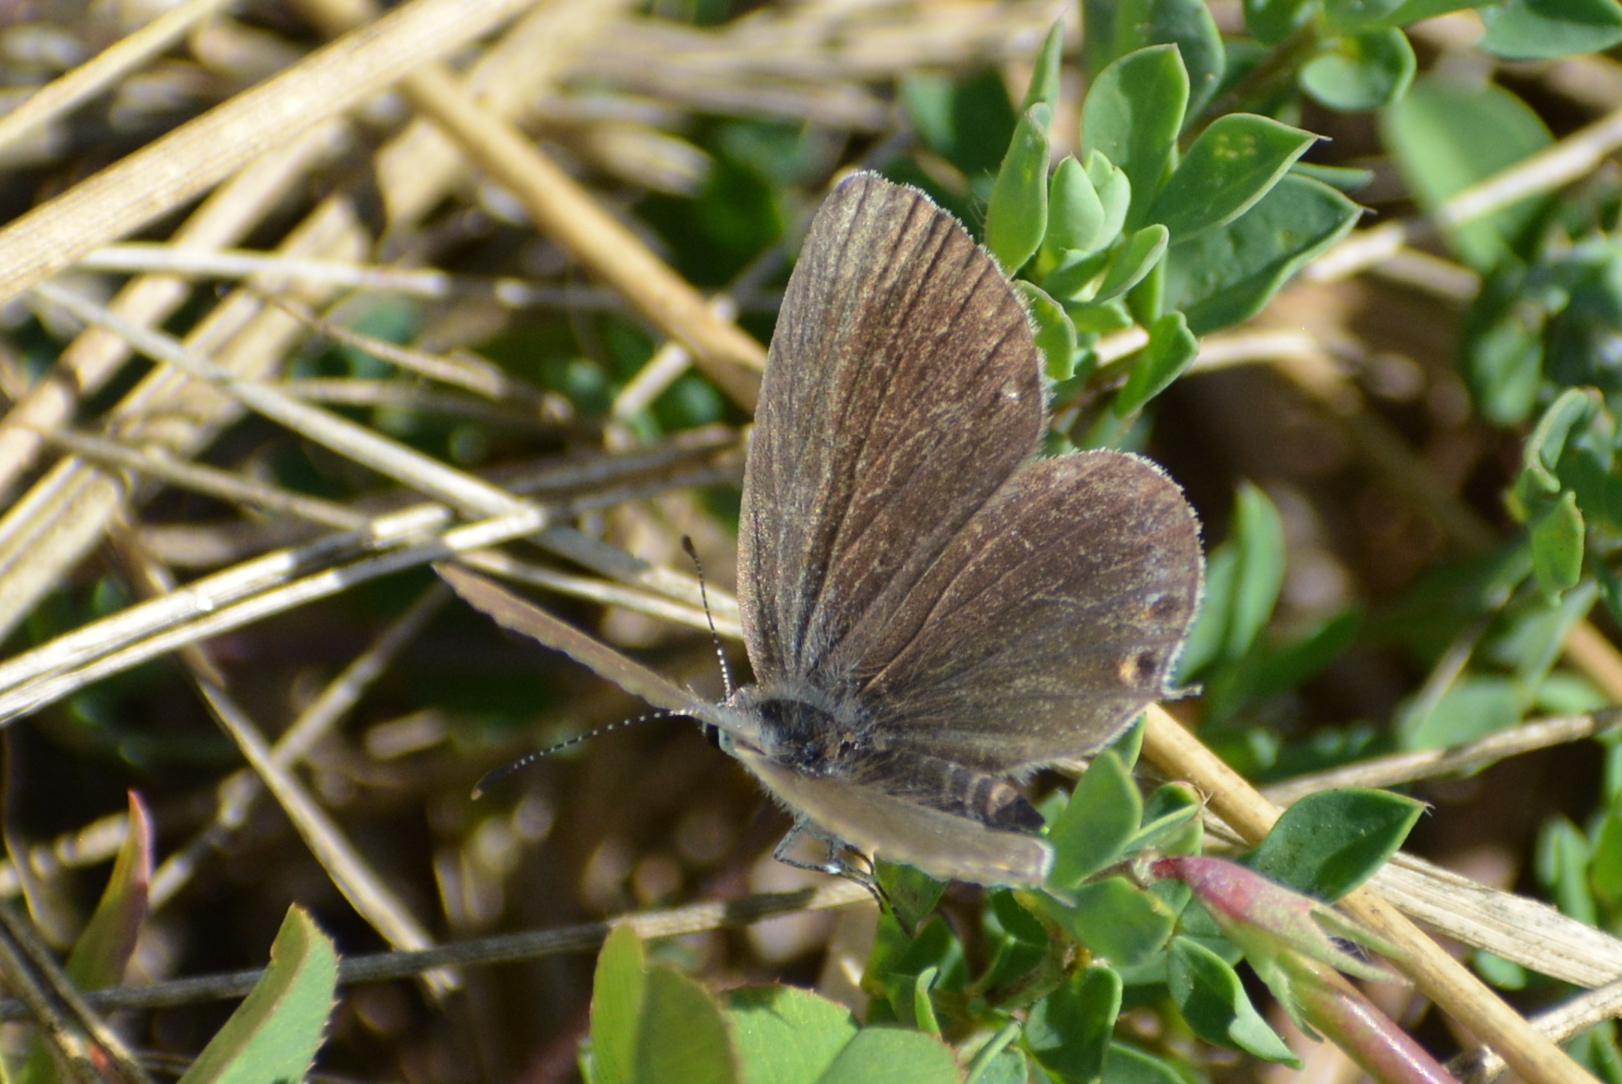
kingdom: Animalia
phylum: Arthropoda
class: Insecta
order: Lepidoptera
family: Lycaenidae
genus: Elkalyce
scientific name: Elkalyce argiades
